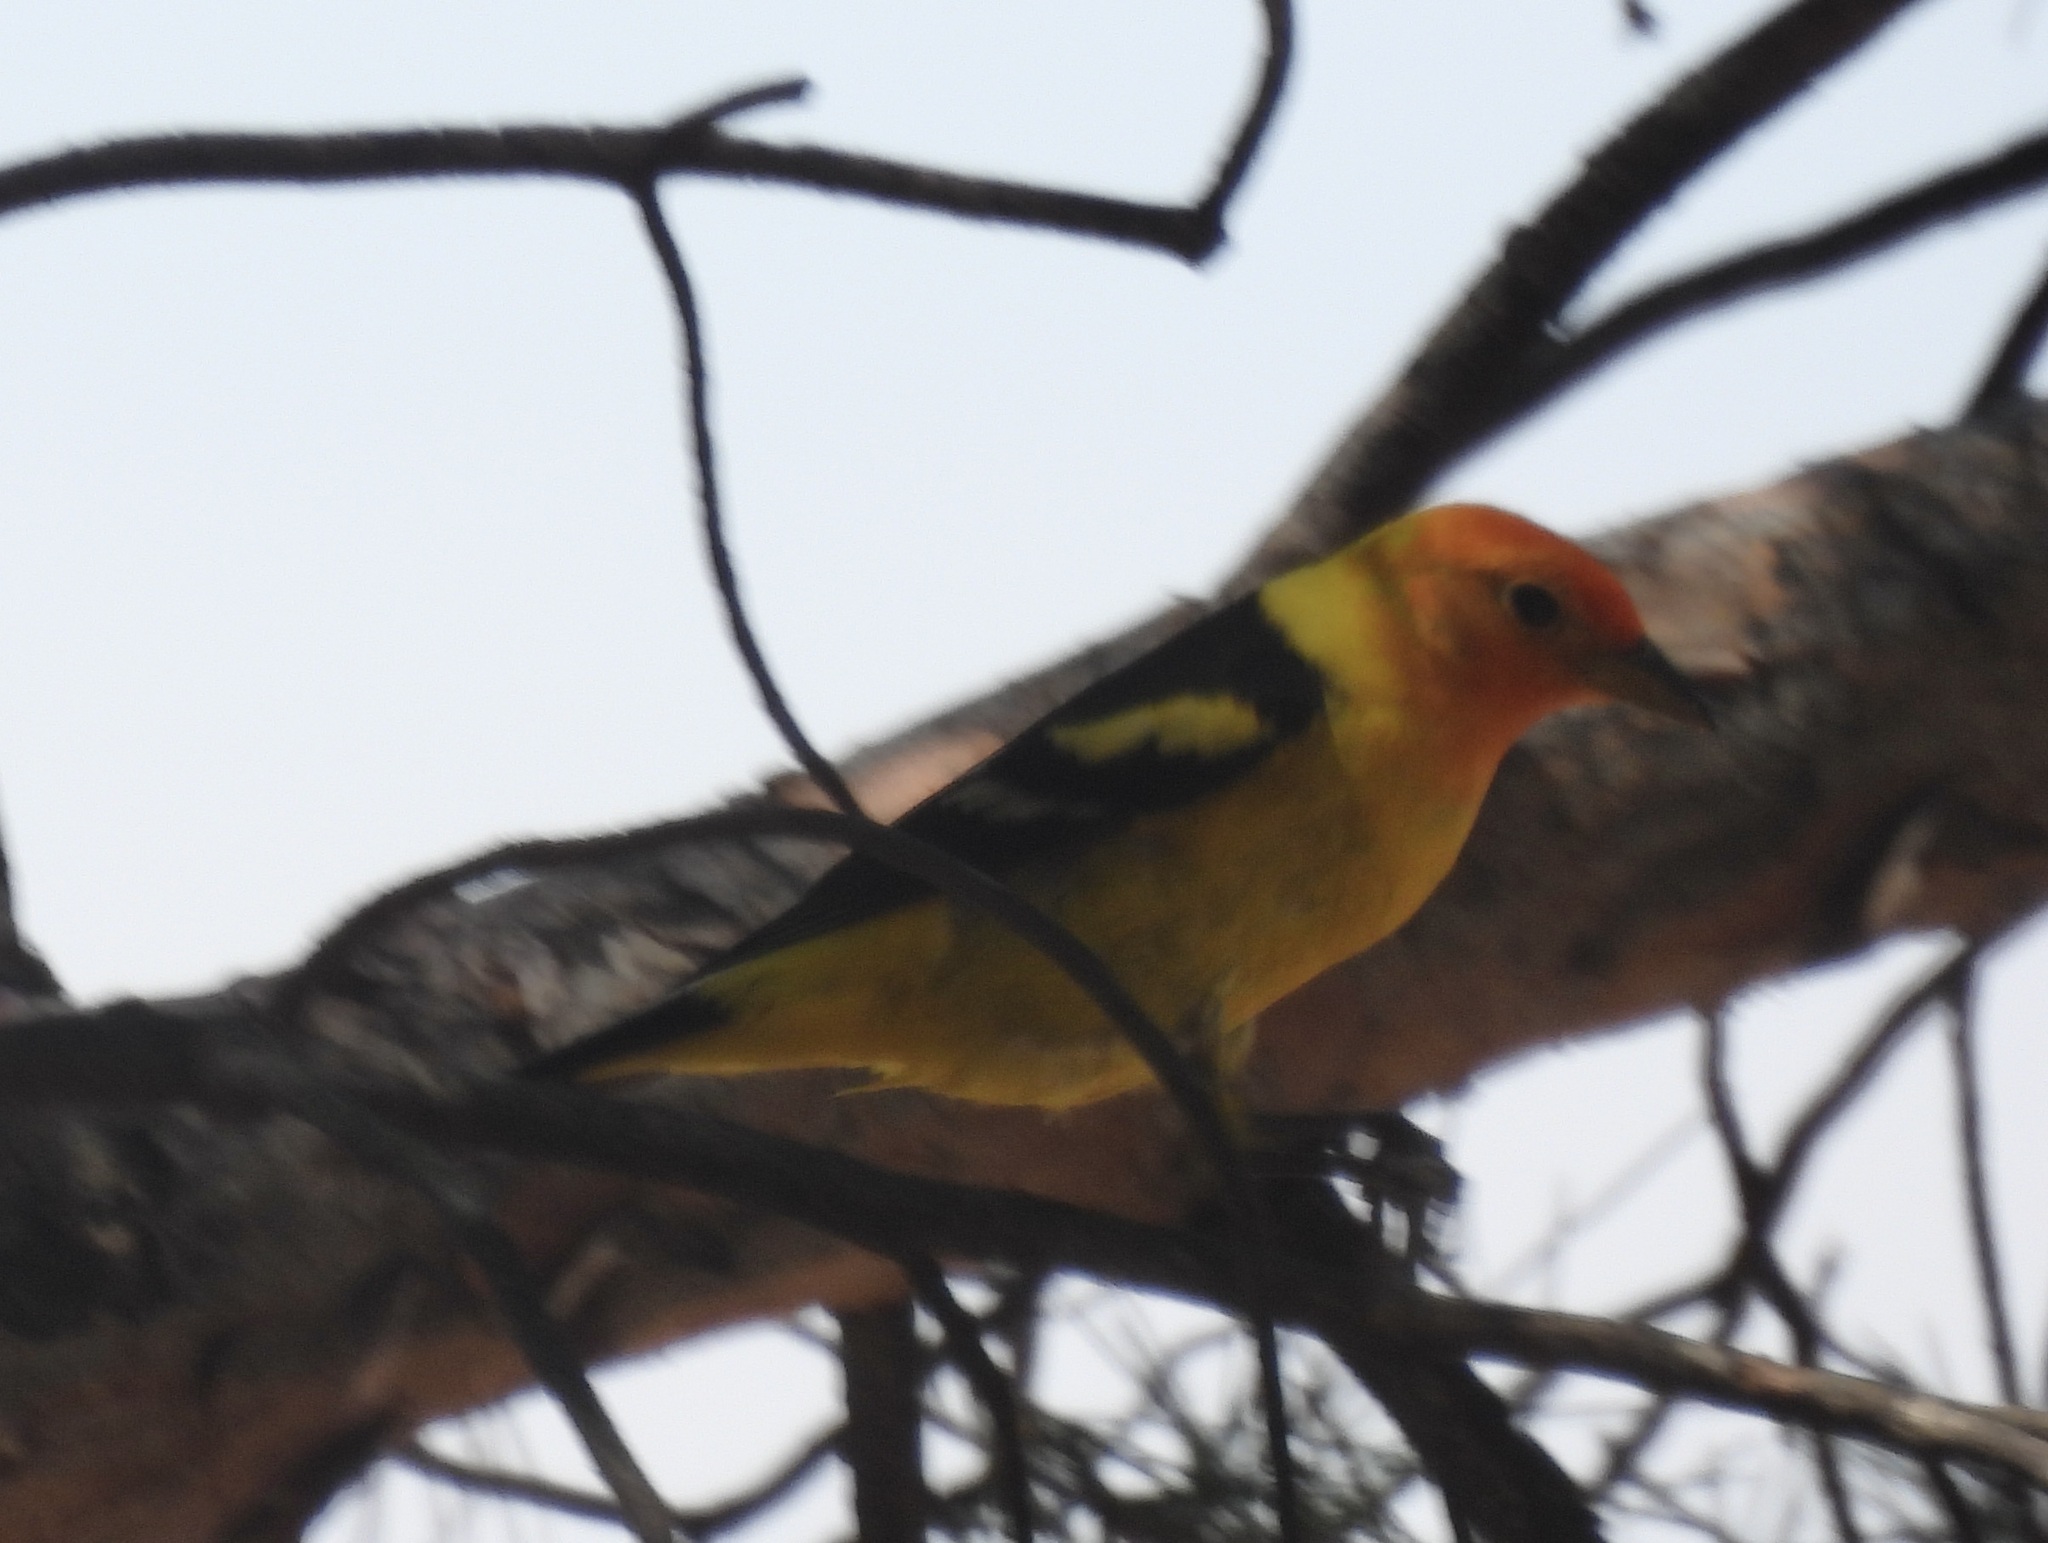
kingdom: Animalia
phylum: Chordata
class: Aves
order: Passeriformes
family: Cardinalidae
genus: Piranga
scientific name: Piranga ludoviciana
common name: Western tanager
